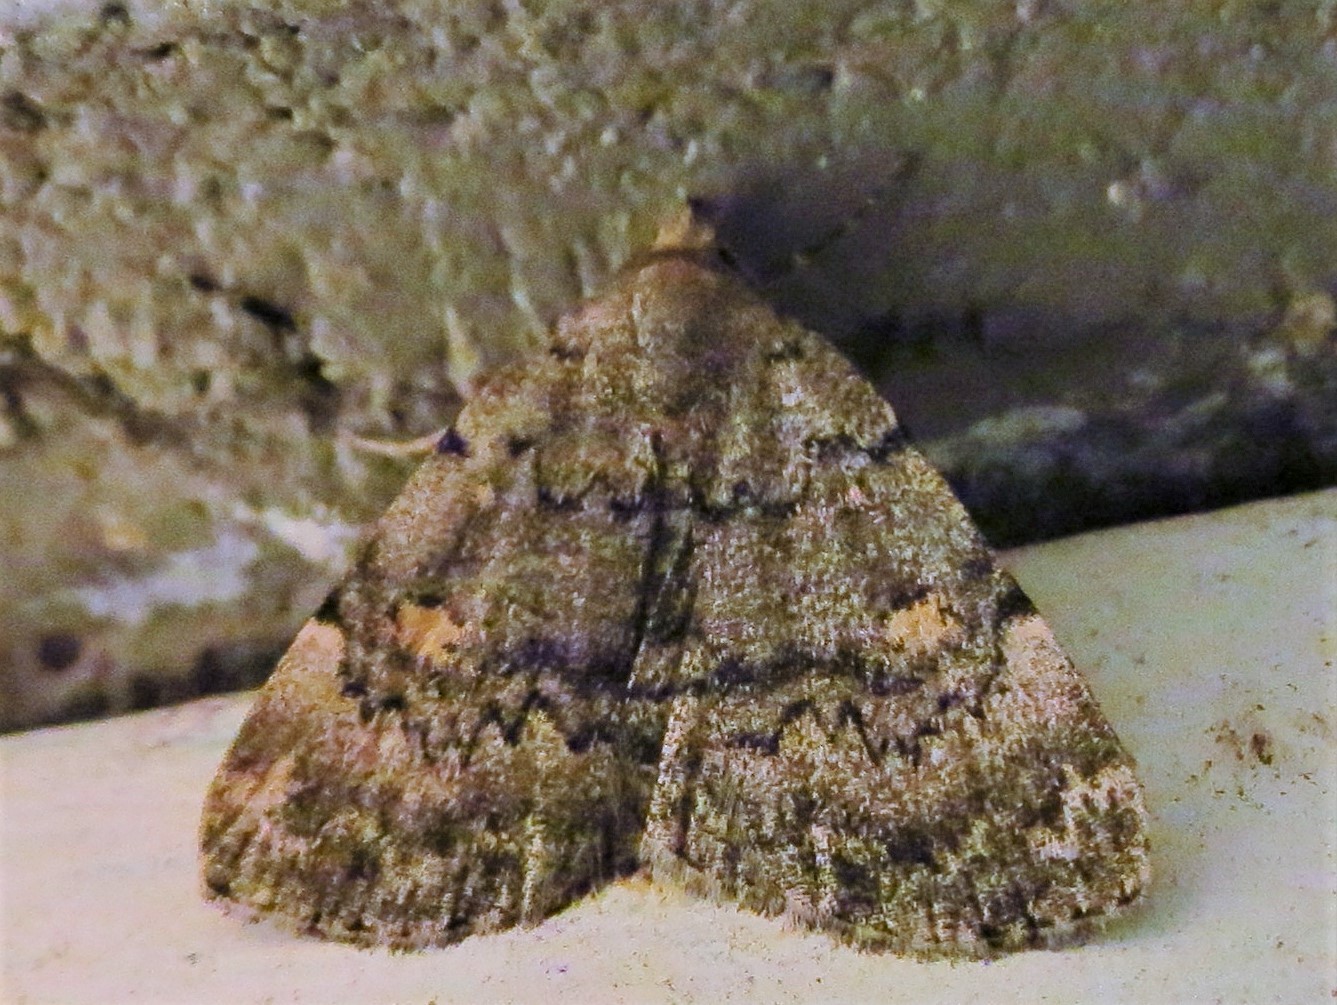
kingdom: Animalia
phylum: Arthropoda
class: Insecta
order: Lepidoptera
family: Erebidae
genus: Idia
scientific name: Idia aemula
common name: Common idia moth
